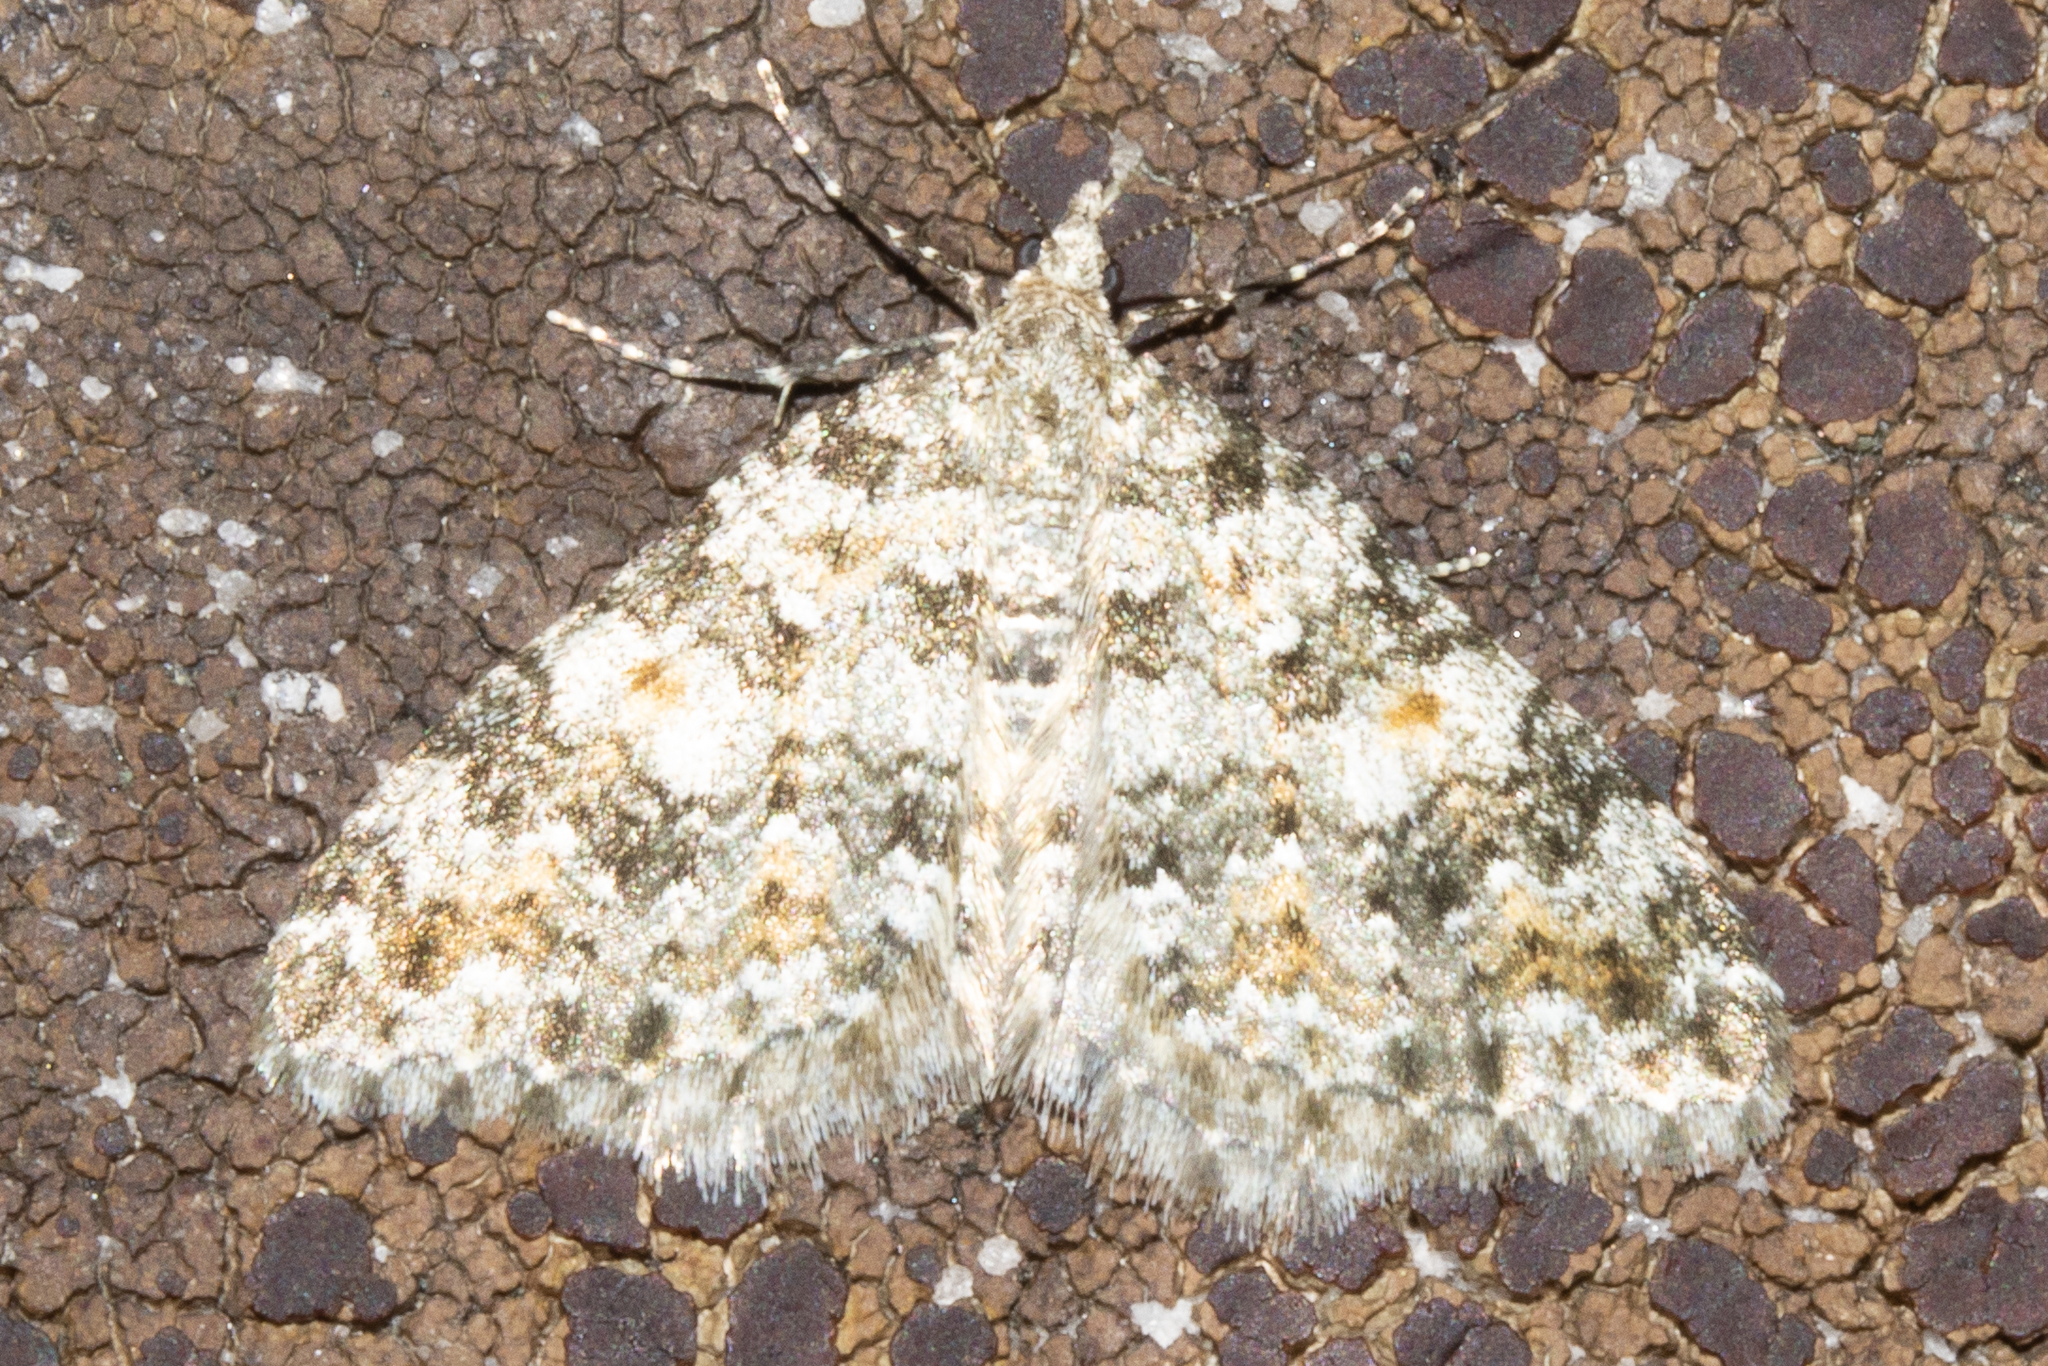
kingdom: Animalia
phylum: Arthropoda
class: Insecta
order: Lepidoptera
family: Geometridae
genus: Helastia
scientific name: Helastia plumbea
